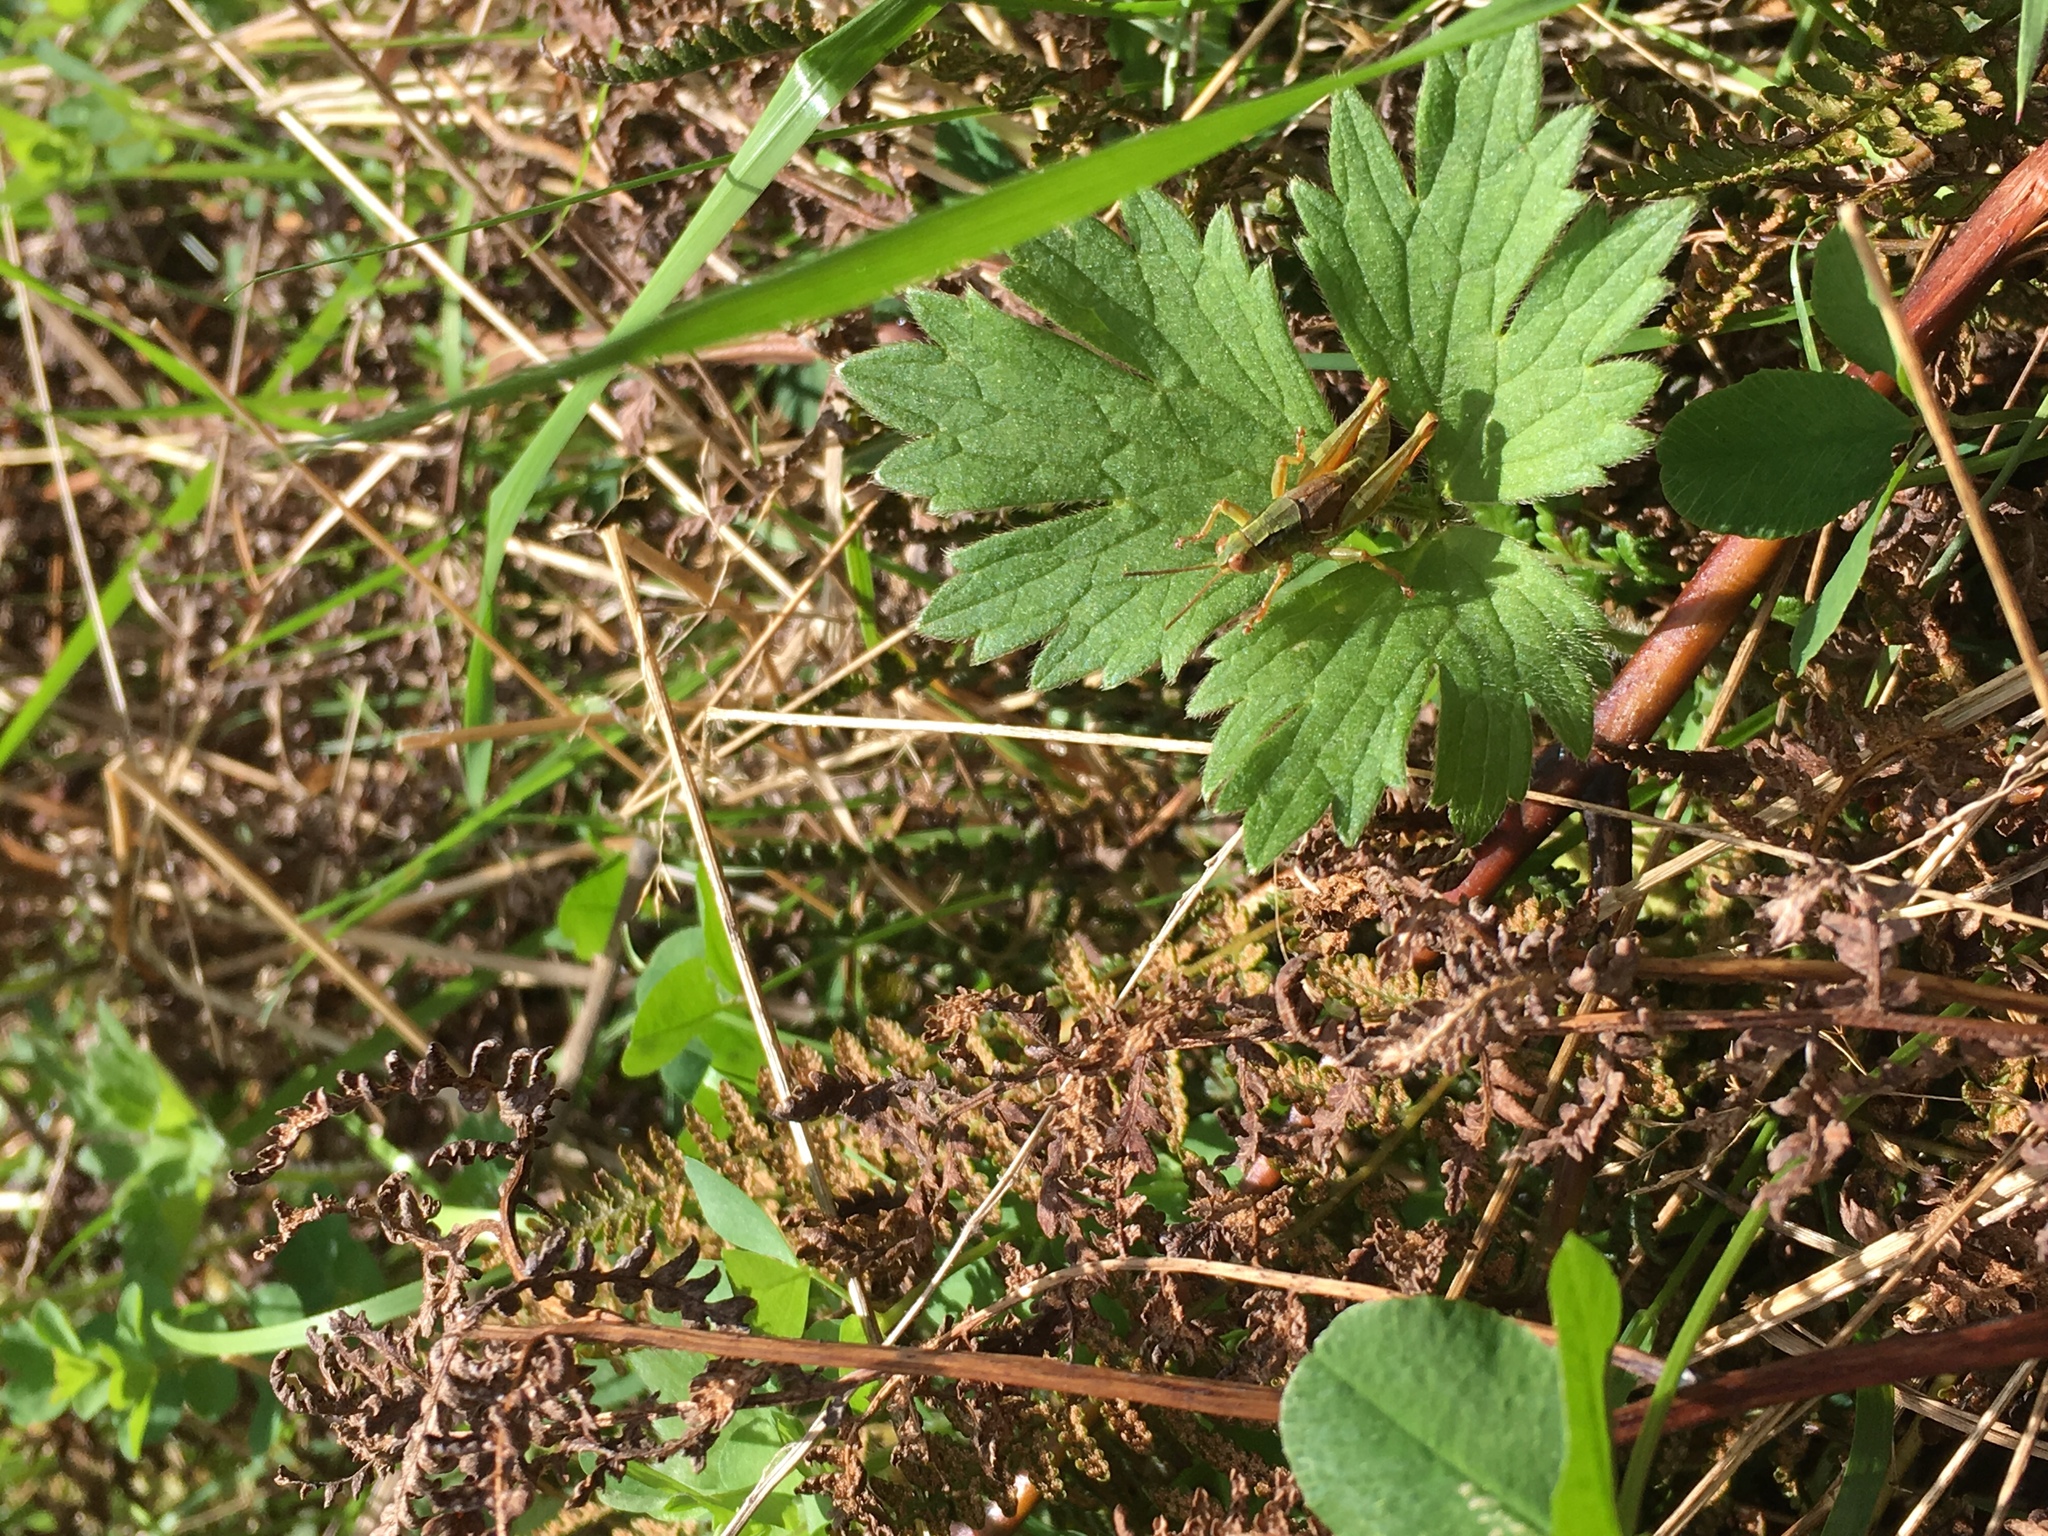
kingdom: Animalia
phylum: Arthropoda
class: Insecta
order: Orthoptera
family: Acrididae
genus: Phaulacridium
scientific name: Phaulacridium marginale
